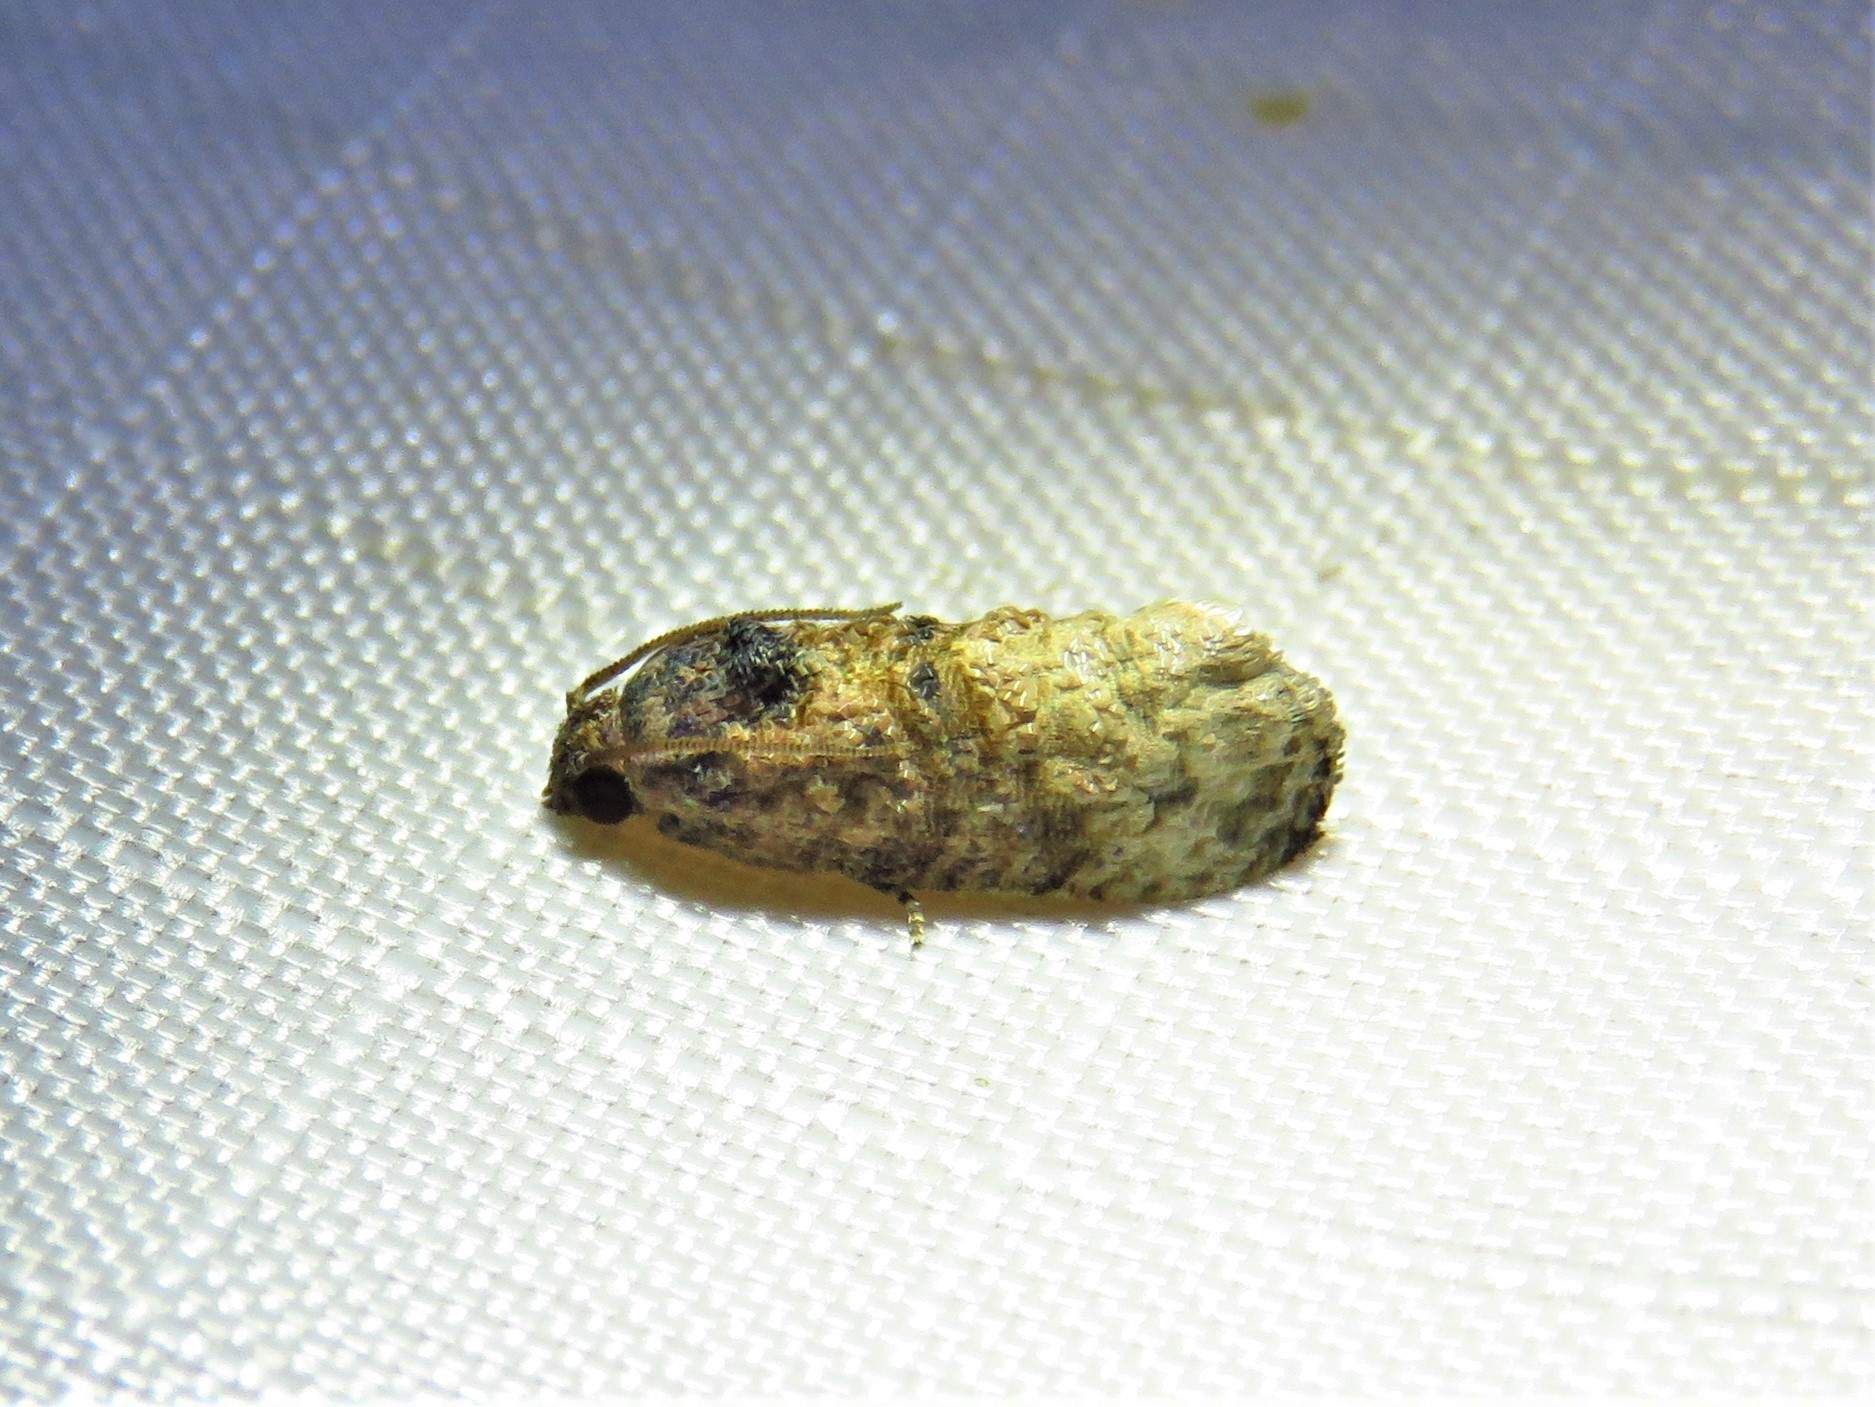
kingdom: Animalia
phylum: Arthropoda
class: Insecta
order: Lepidoptera
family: Tortricidae
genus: Ecdytolopha
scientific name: Ecdytolopha mana
